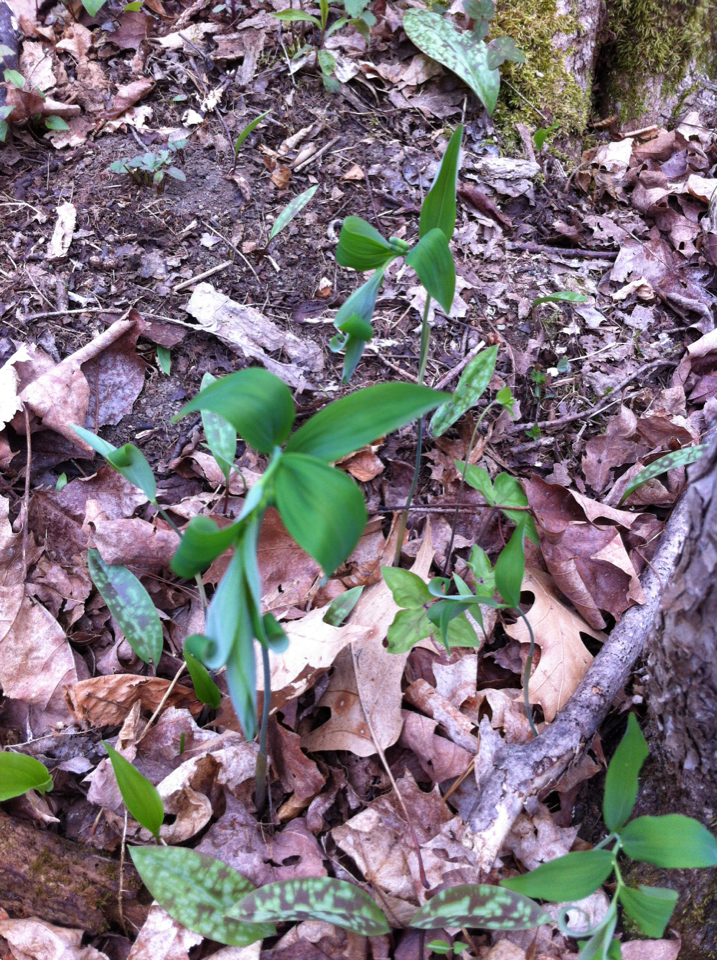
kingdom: Plantae
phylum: Tracheophyta
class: Liliopsida
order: Asparagales
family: Asparagaceae
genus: Polygonatum
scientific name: Polygonatum pubescens
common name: Downy solomon's seal
